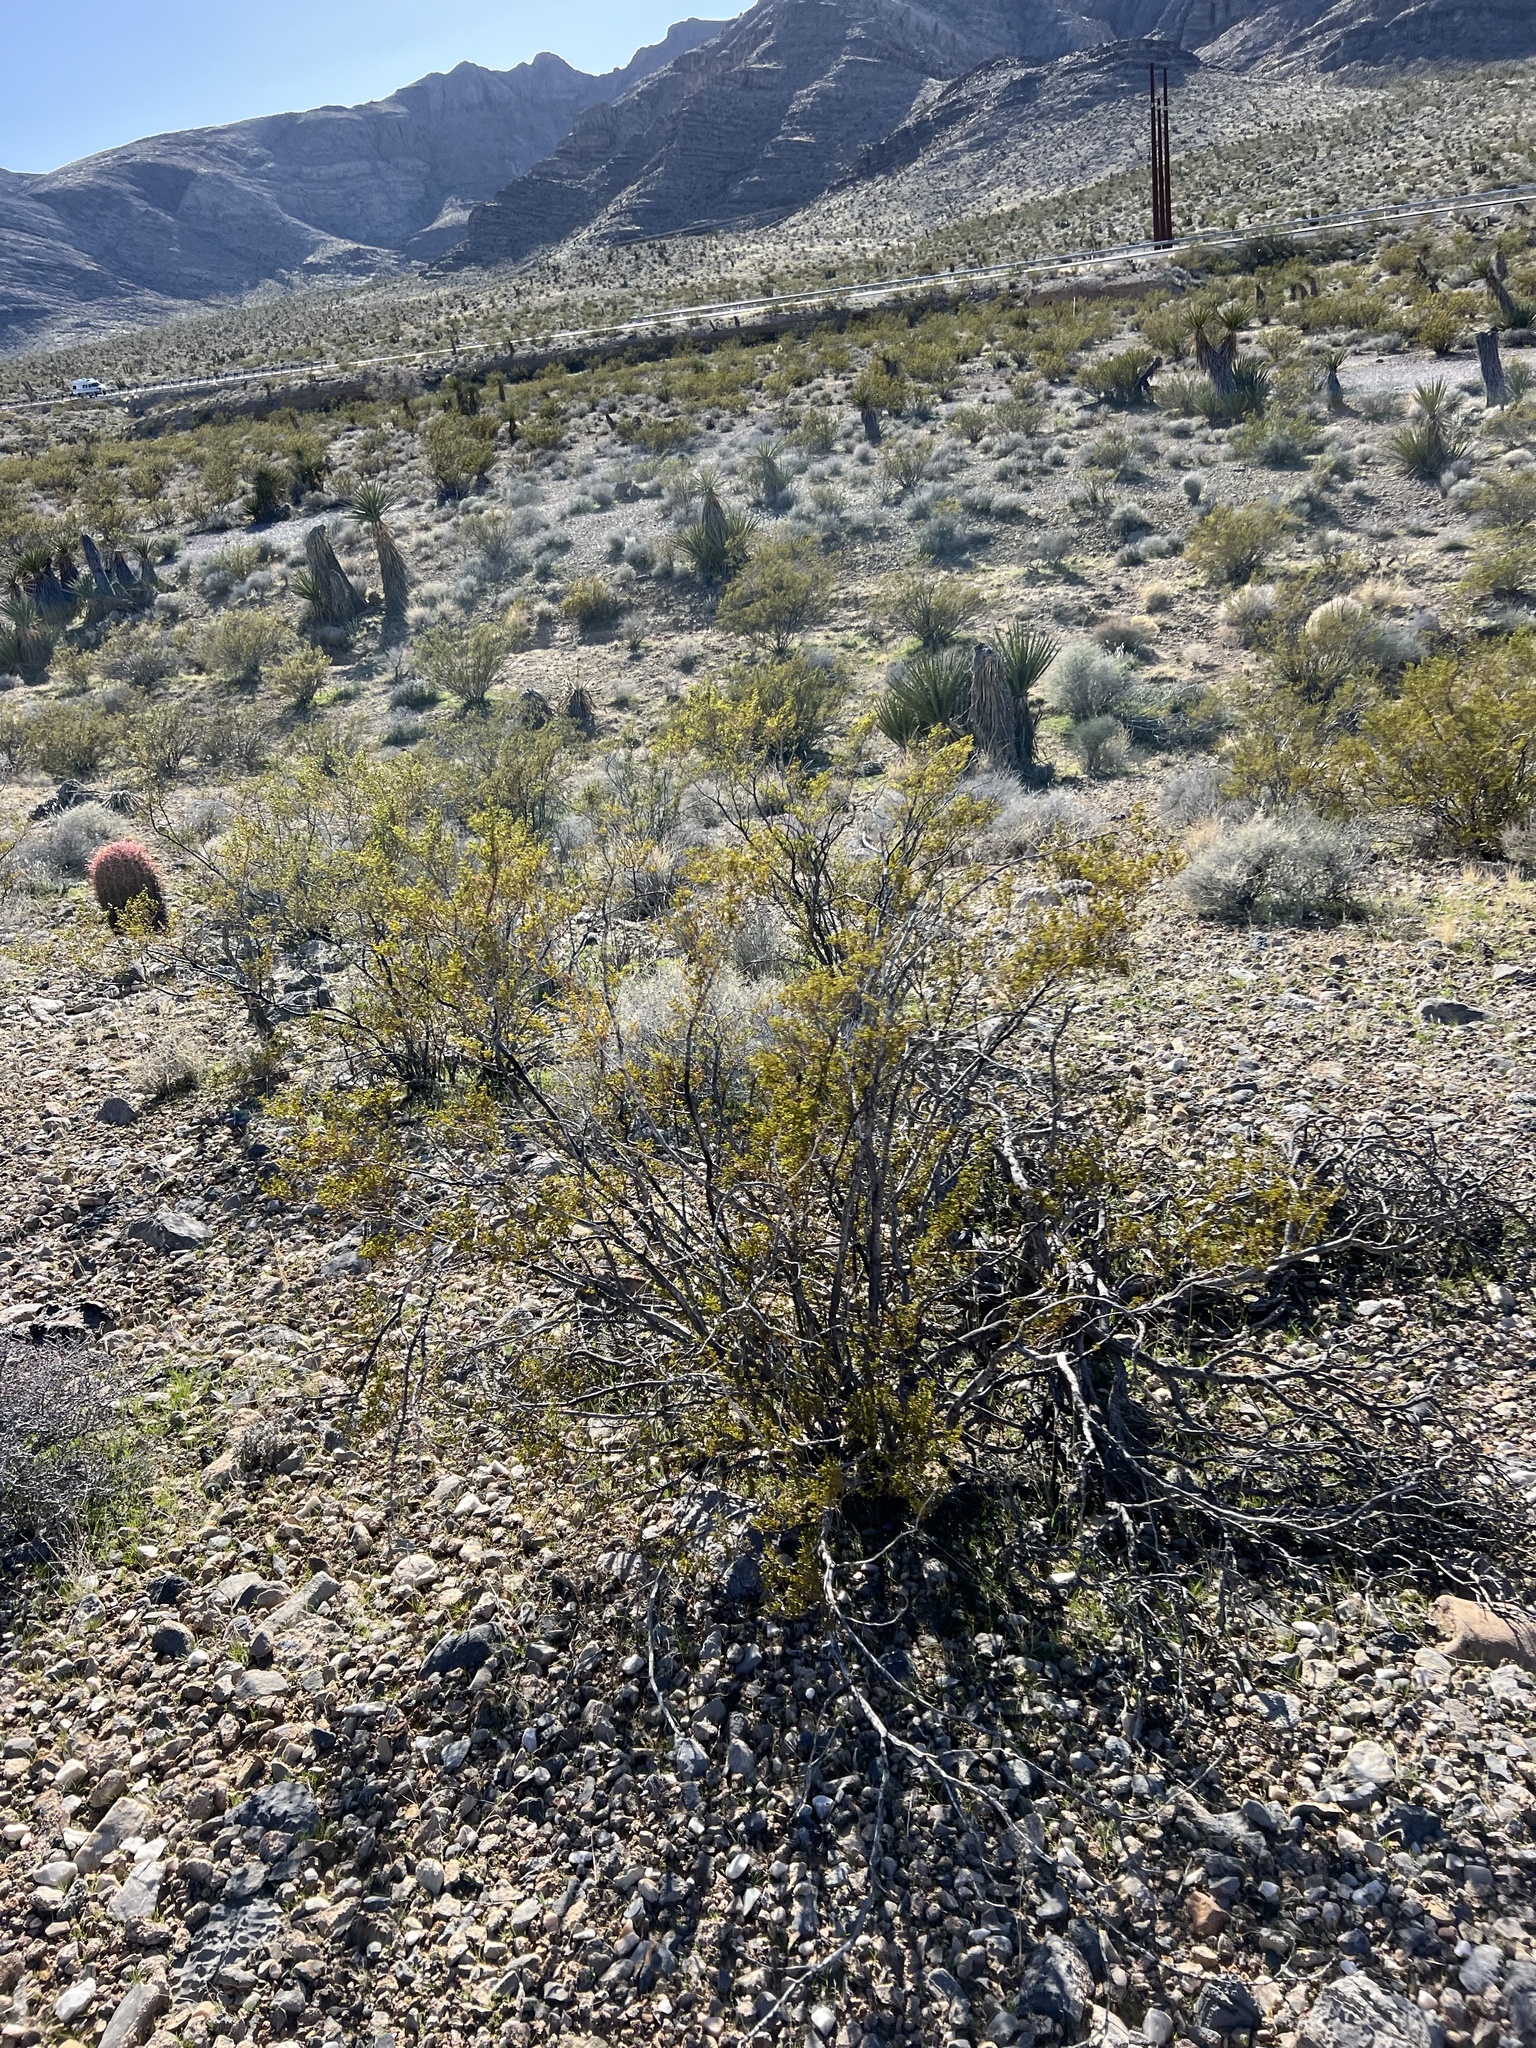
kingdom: Plantae
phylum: Tracheophyta
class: Magnoliopsida
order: Zygophyllales
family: Zygophyllaceae
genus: Larrea
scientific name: Larrea tridentata
